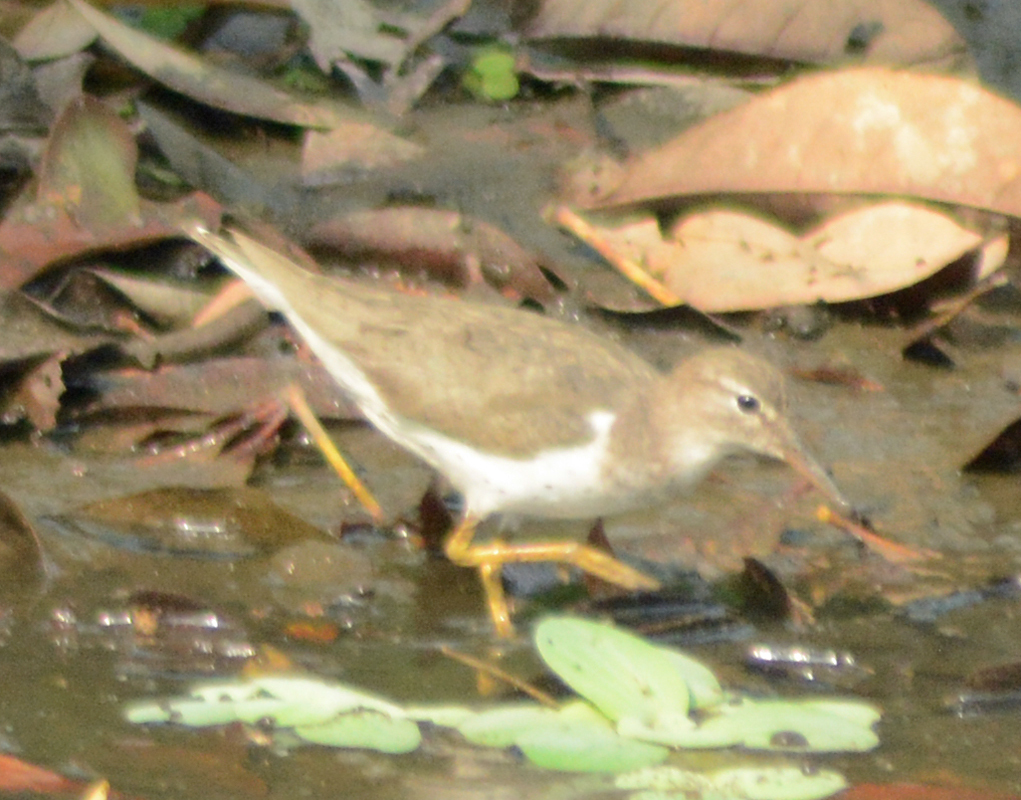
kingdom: Animalia
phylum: Chordata
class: Aves
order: Charadriiformes
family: Scolopacidae
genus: Actitis
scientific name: Actitis macularius
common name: Spotted sandpiper
